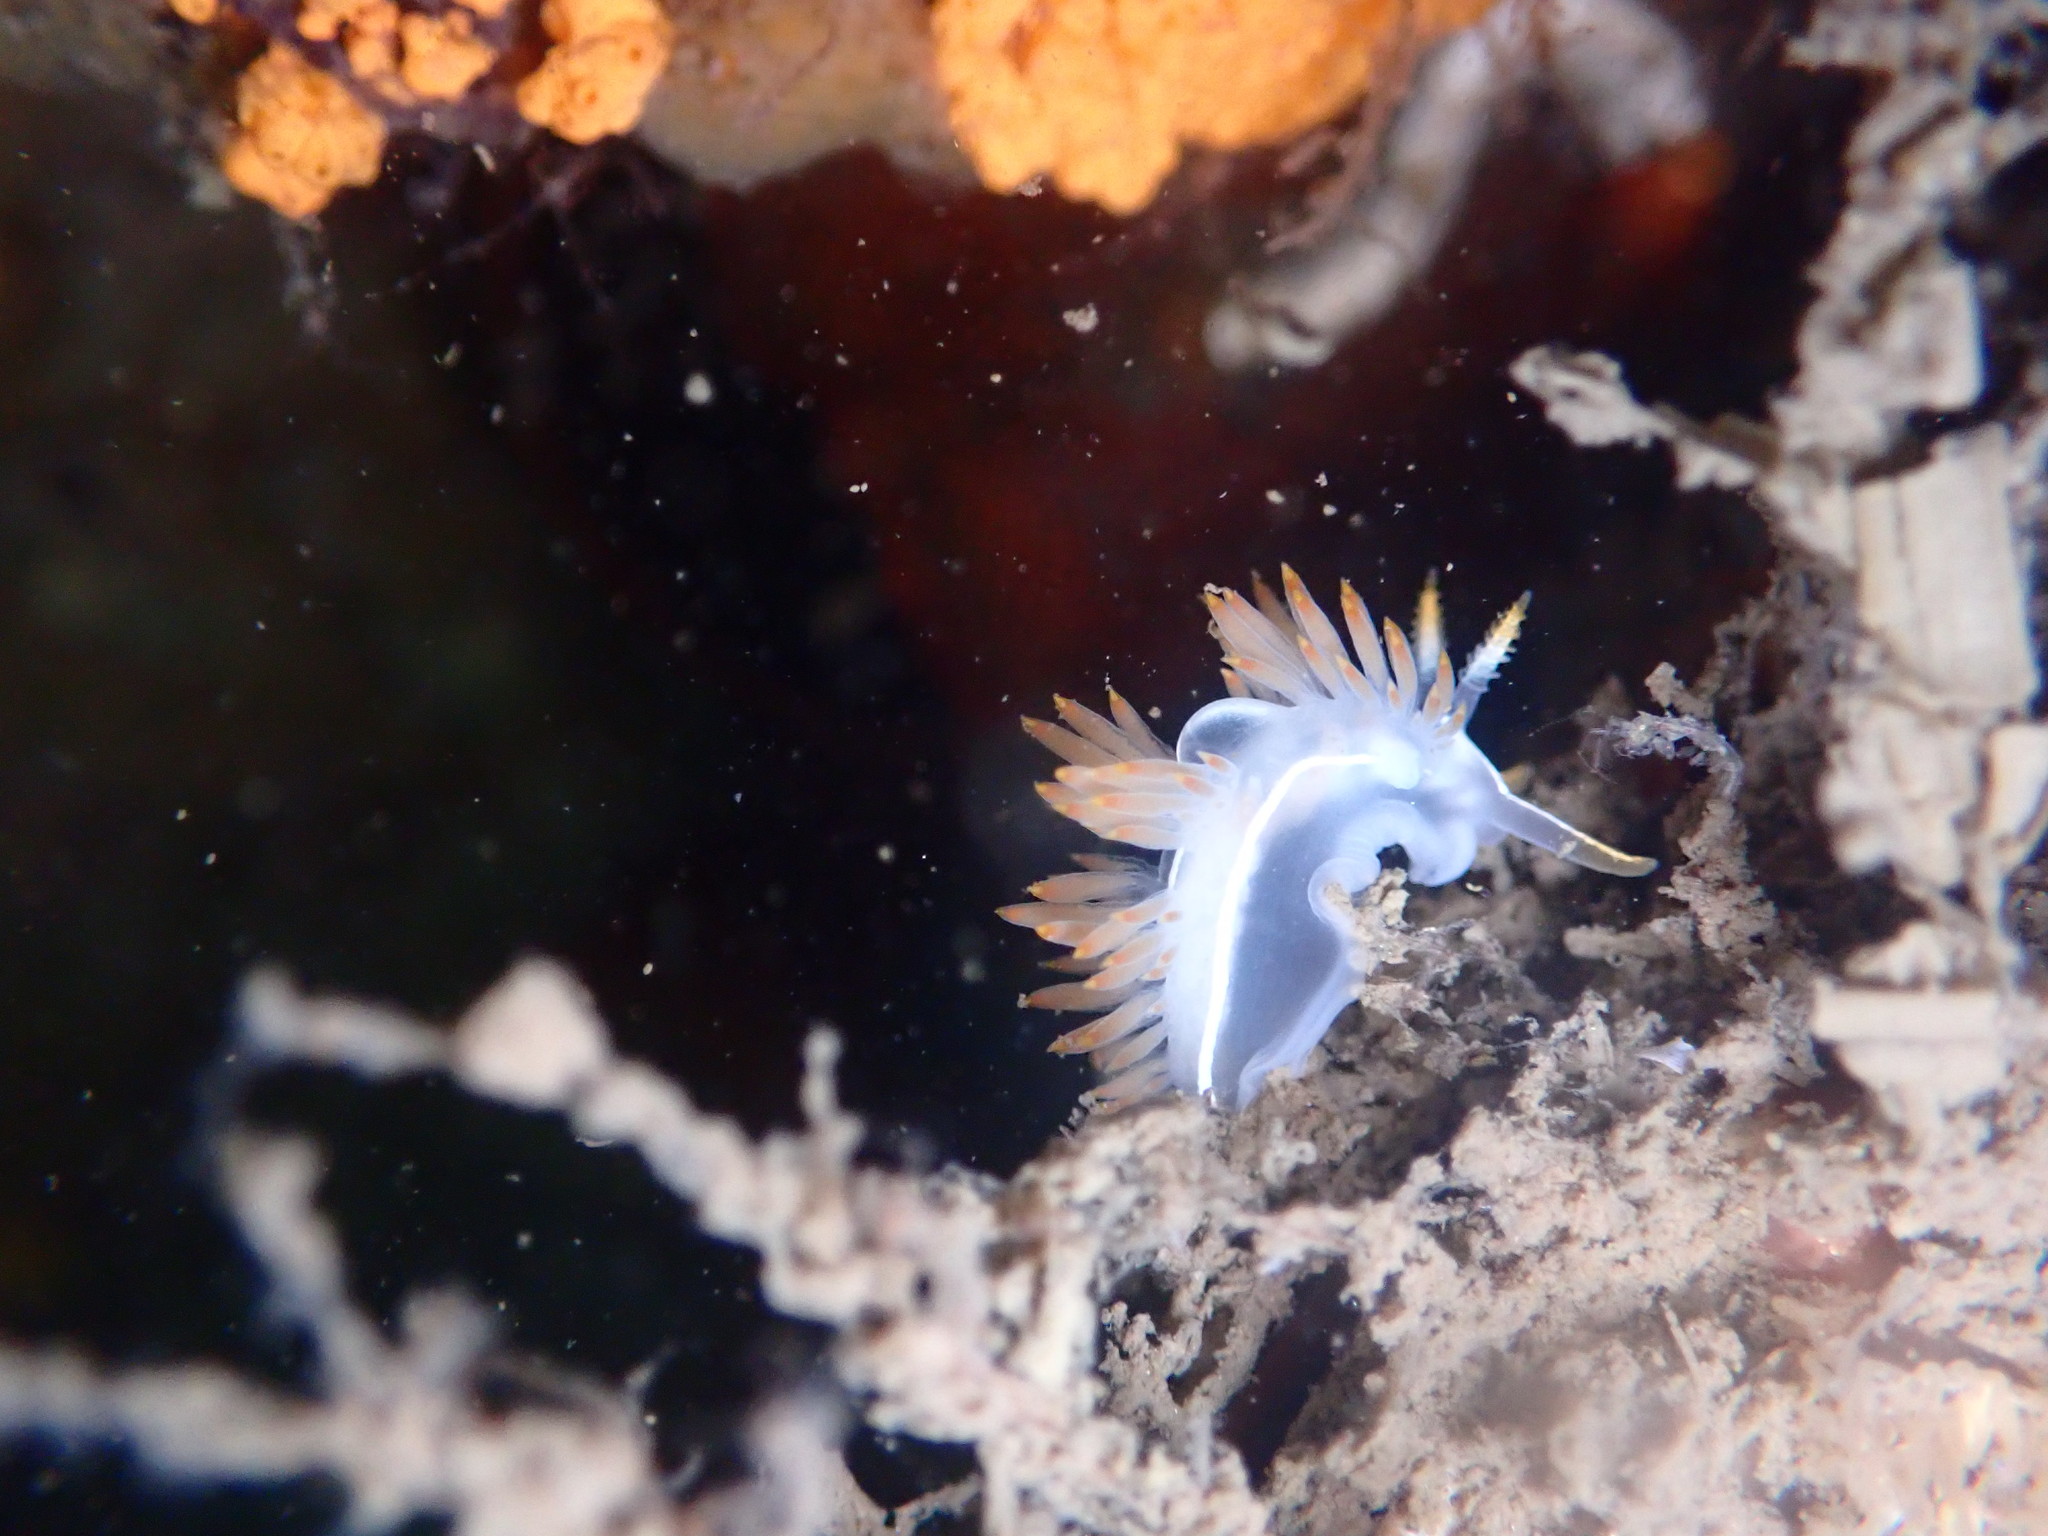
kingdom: Animalia
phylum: Mollusca
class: Gastropoda
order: Nudibranchia
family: Coryphellidae
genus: Coryphella
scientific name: Coryphella trilineata
